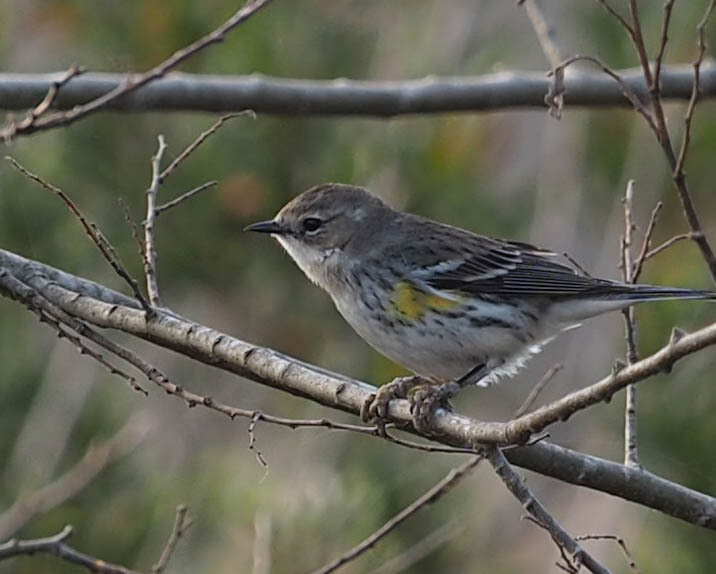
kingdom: Animalia
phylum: Chordata
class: Aves
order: Passeriformes
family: Parulidae
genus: Setophaga
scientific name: Setophaga coronata
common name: Myrtle warbler
